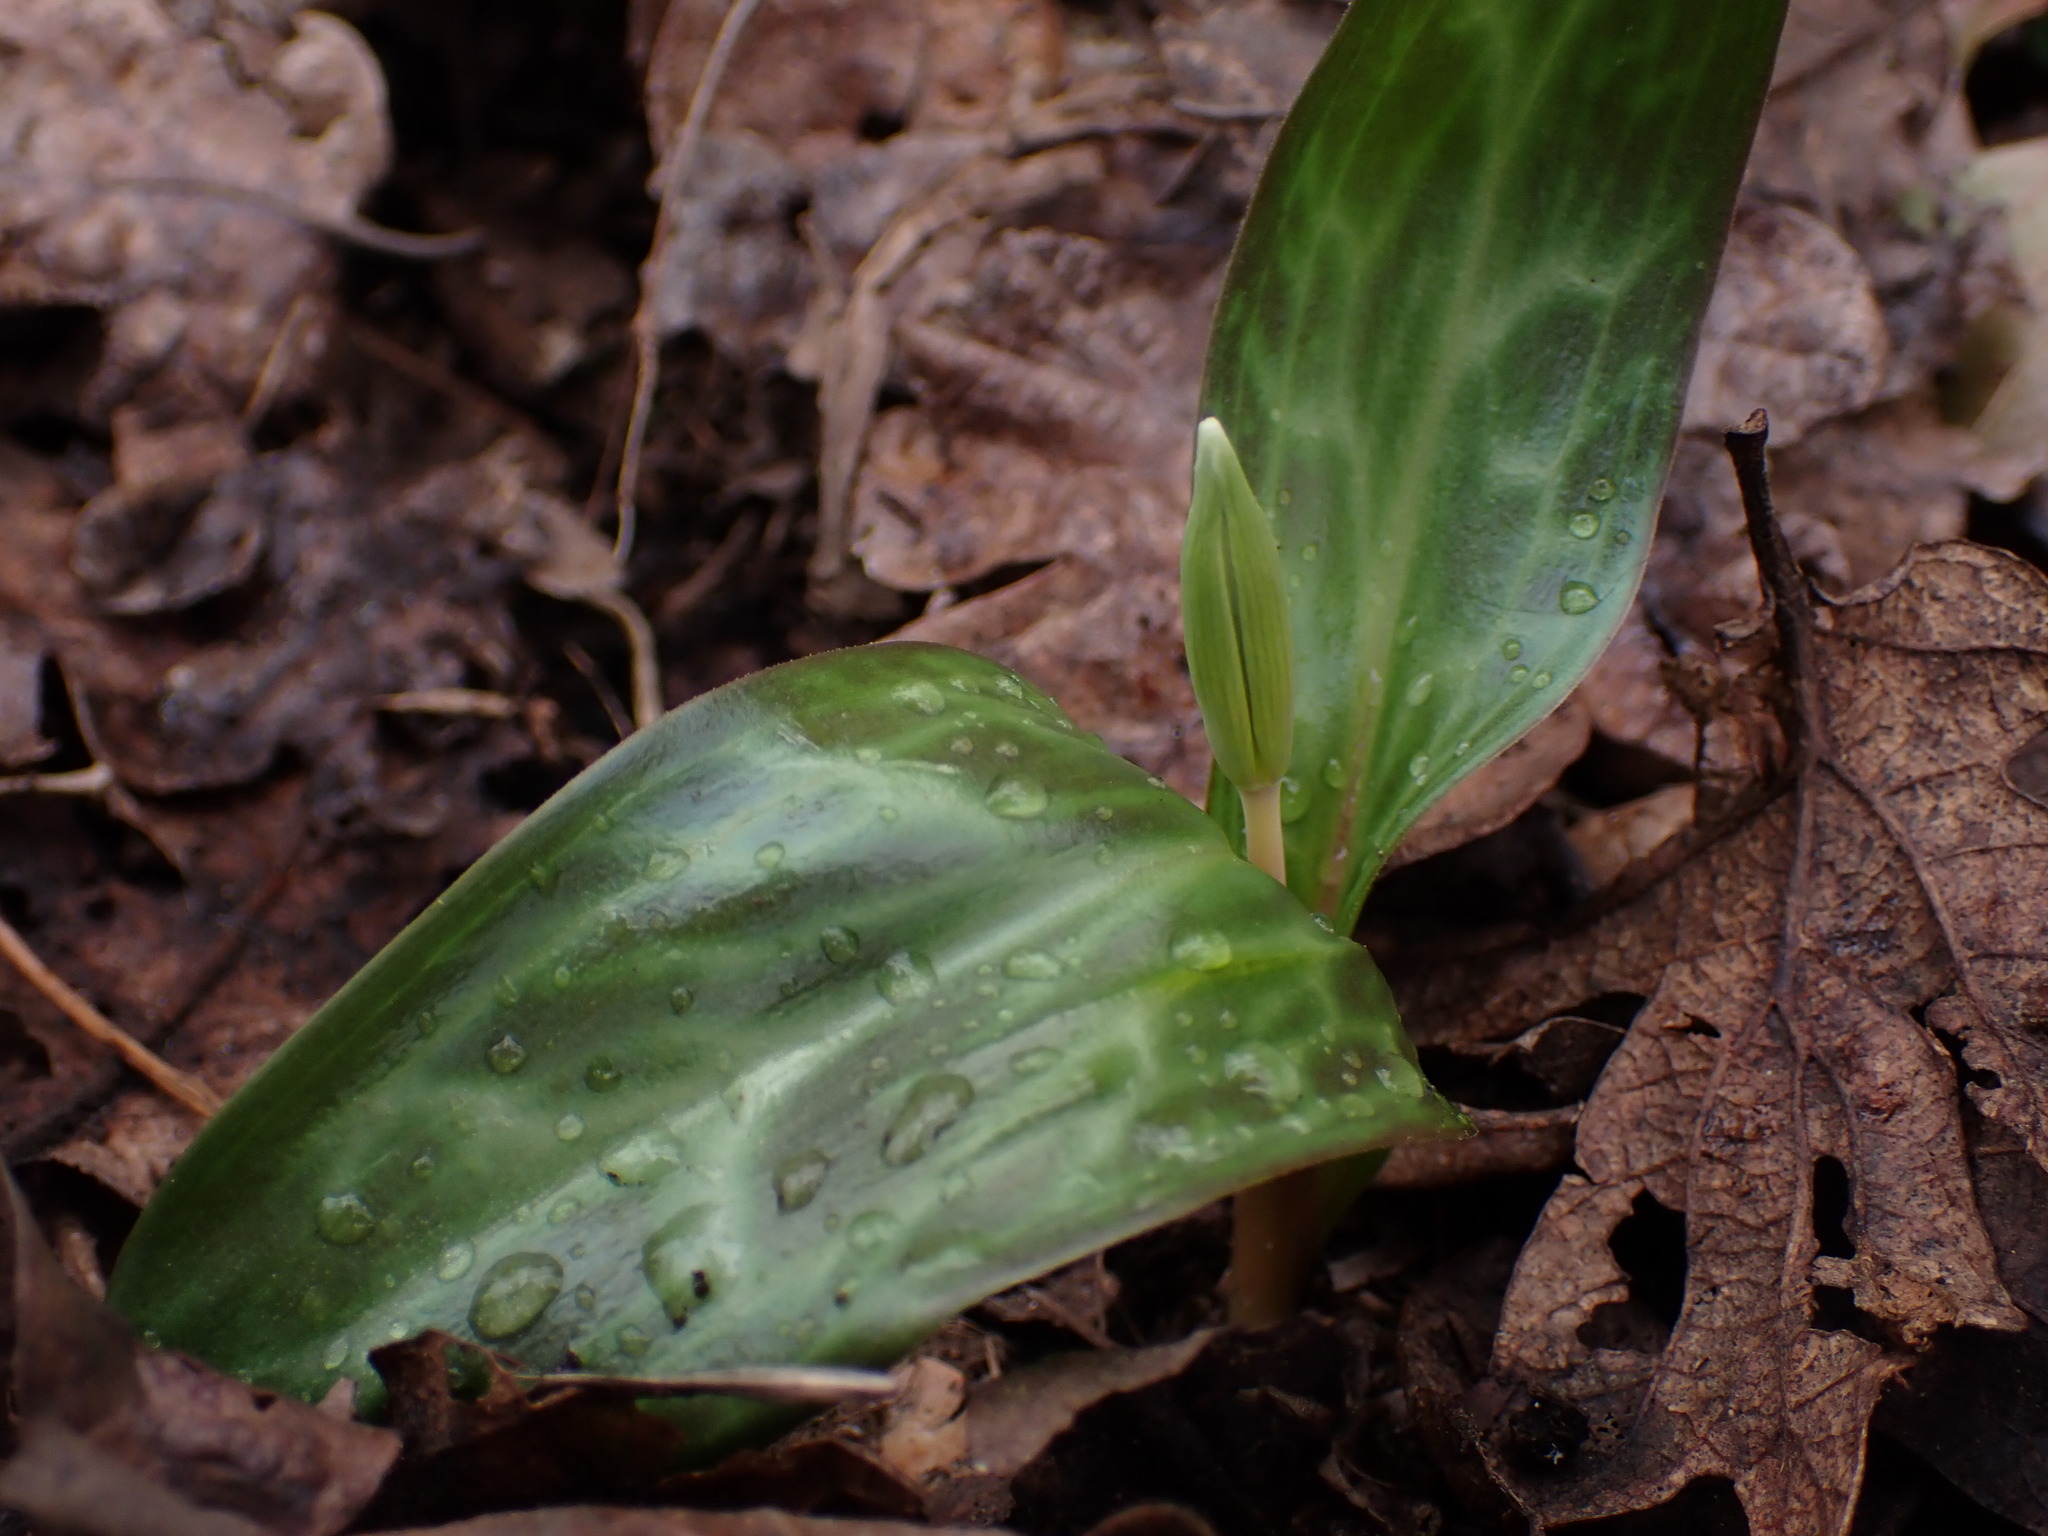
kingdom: Plantae
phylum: Tracheophyta
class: Liliopsida
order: Liliales
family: Liliaceae
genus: Erythronium
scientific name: Erythronium oregonum
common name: Giant adder's-tongue
